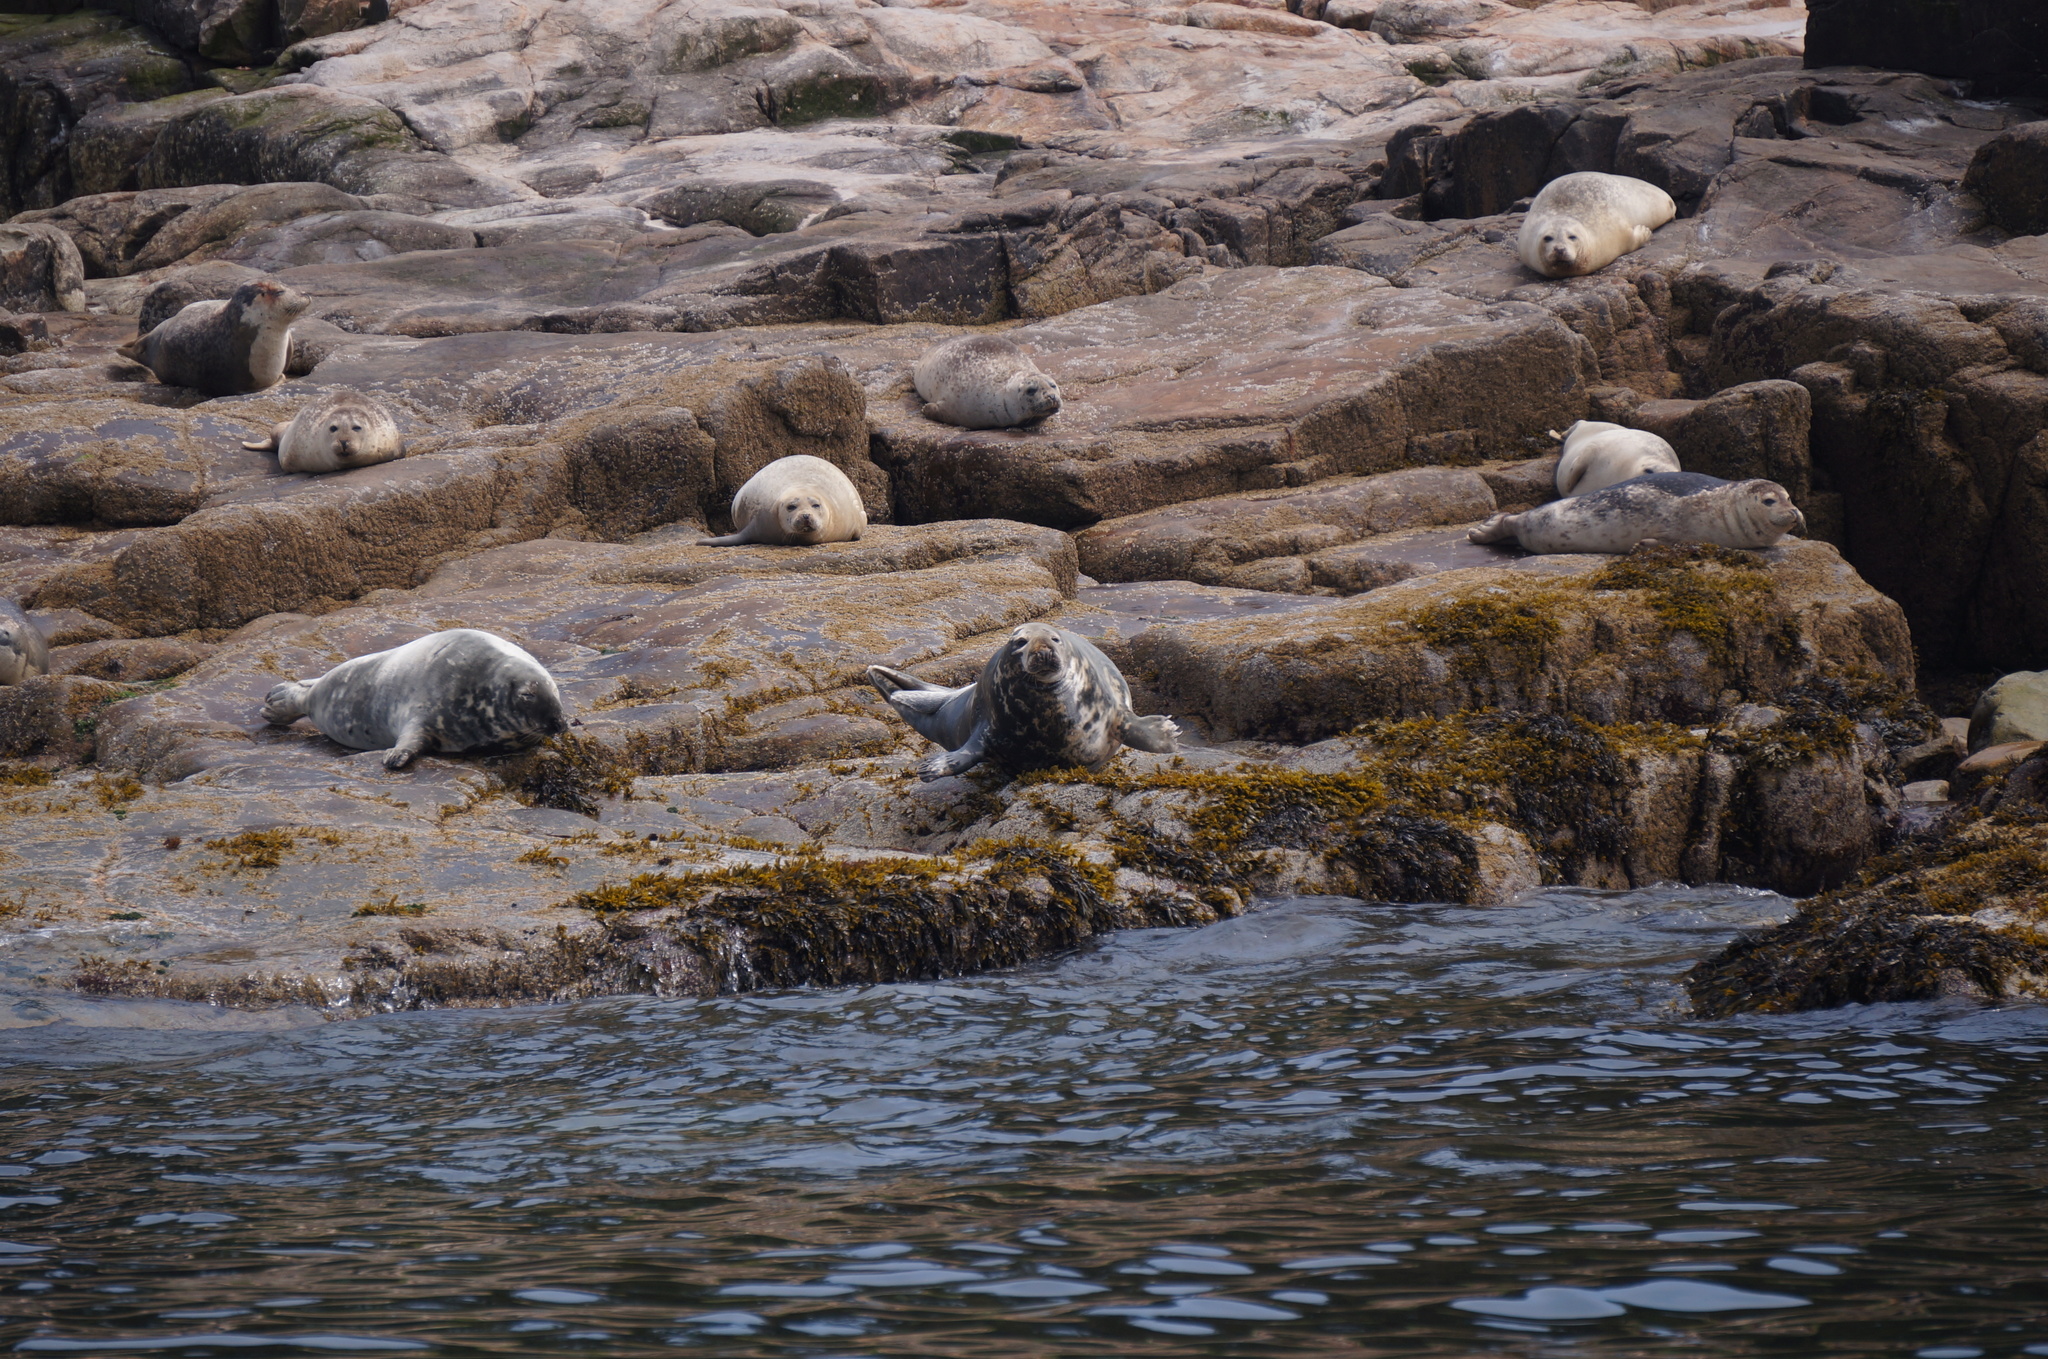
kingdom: Animalia
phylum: Chordata
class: Mammalia
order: Carnivora
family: Phocidae
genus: Phoca
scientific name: Phoca vitulina
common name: Harbor seal
